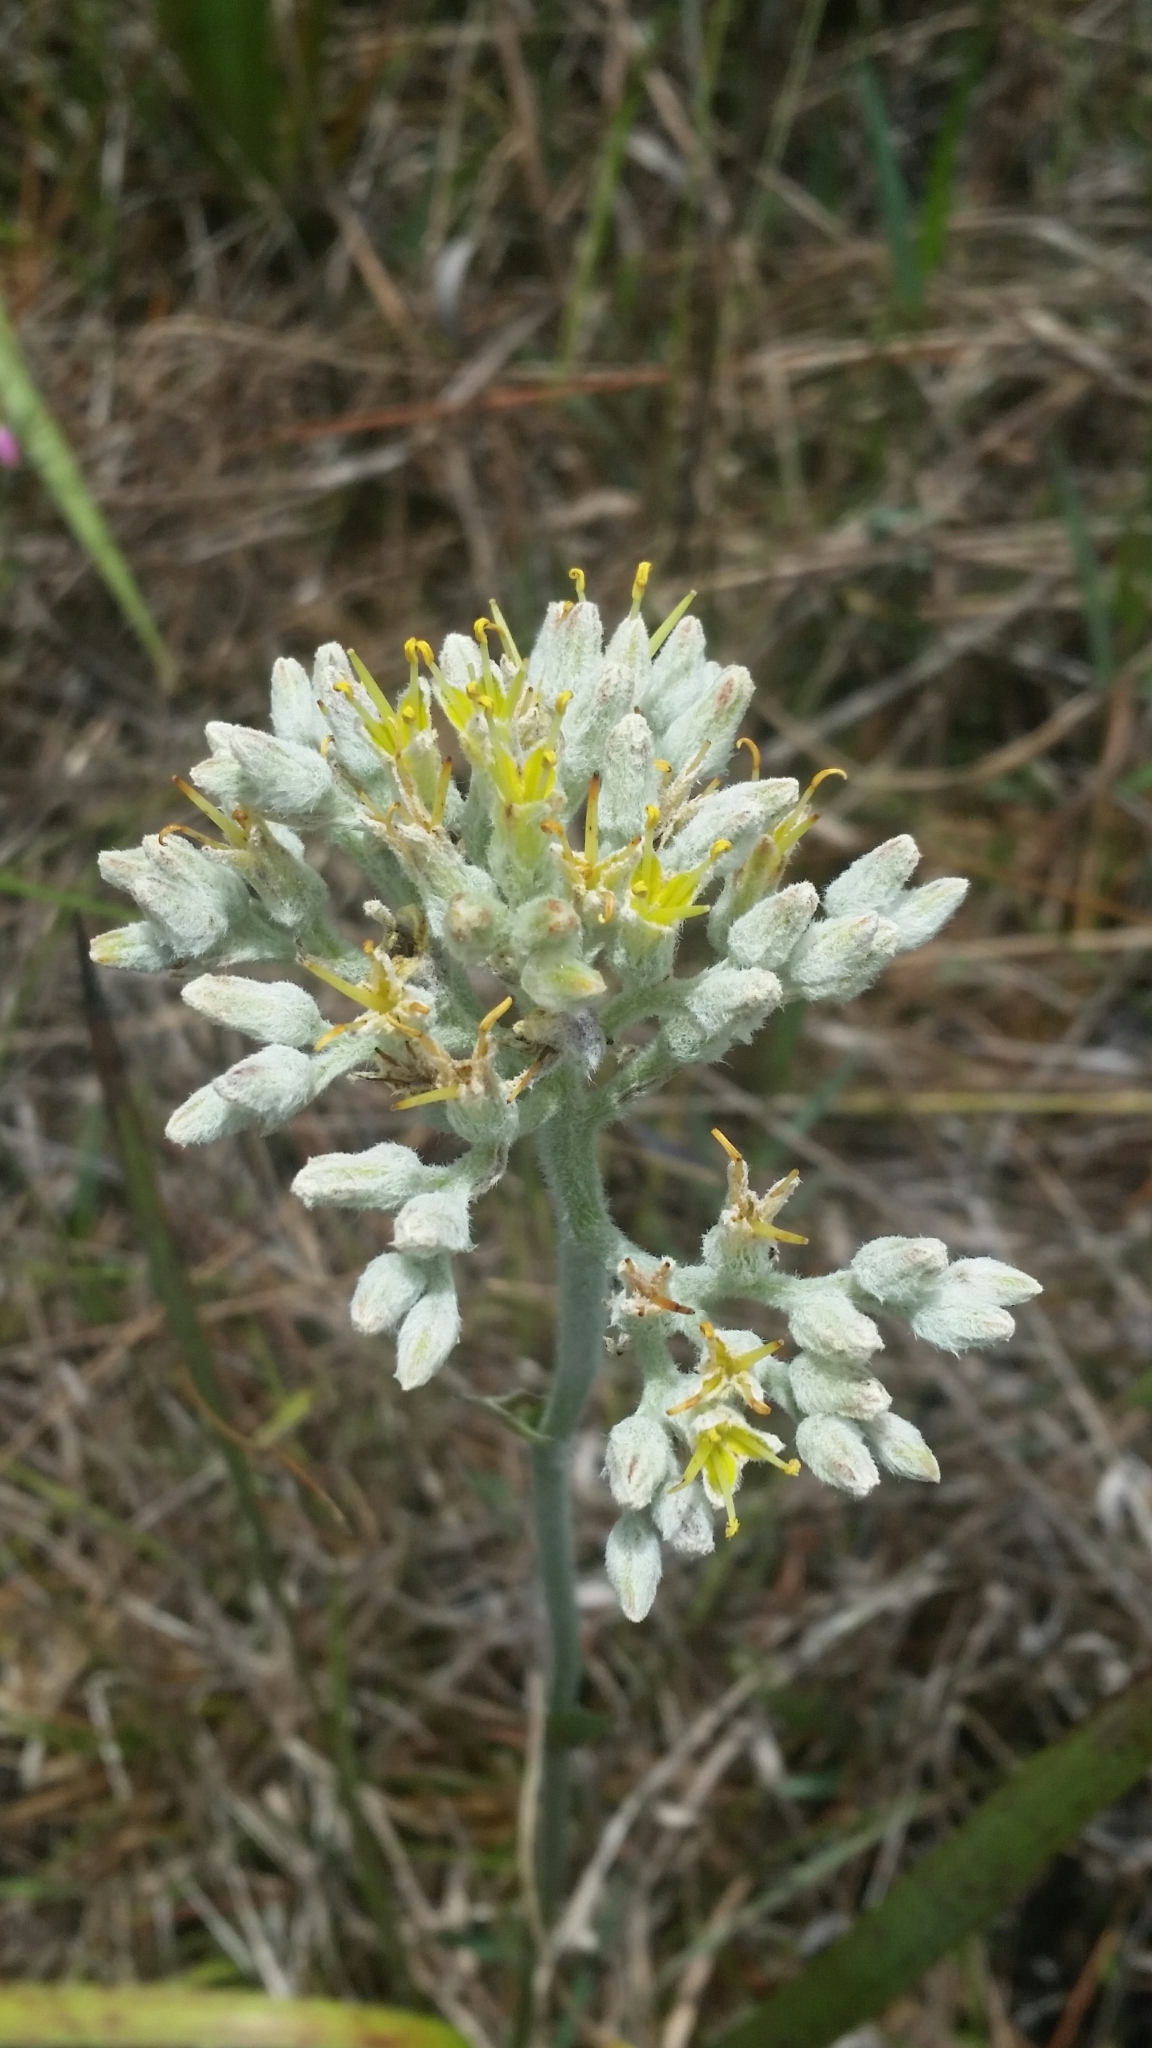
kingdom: Plantae
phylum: Tracheophyta
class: Liliopsida
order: Commelinales
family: Haemodoraceae
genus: Lachnanthes
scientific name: Lachnanthes caroliana
